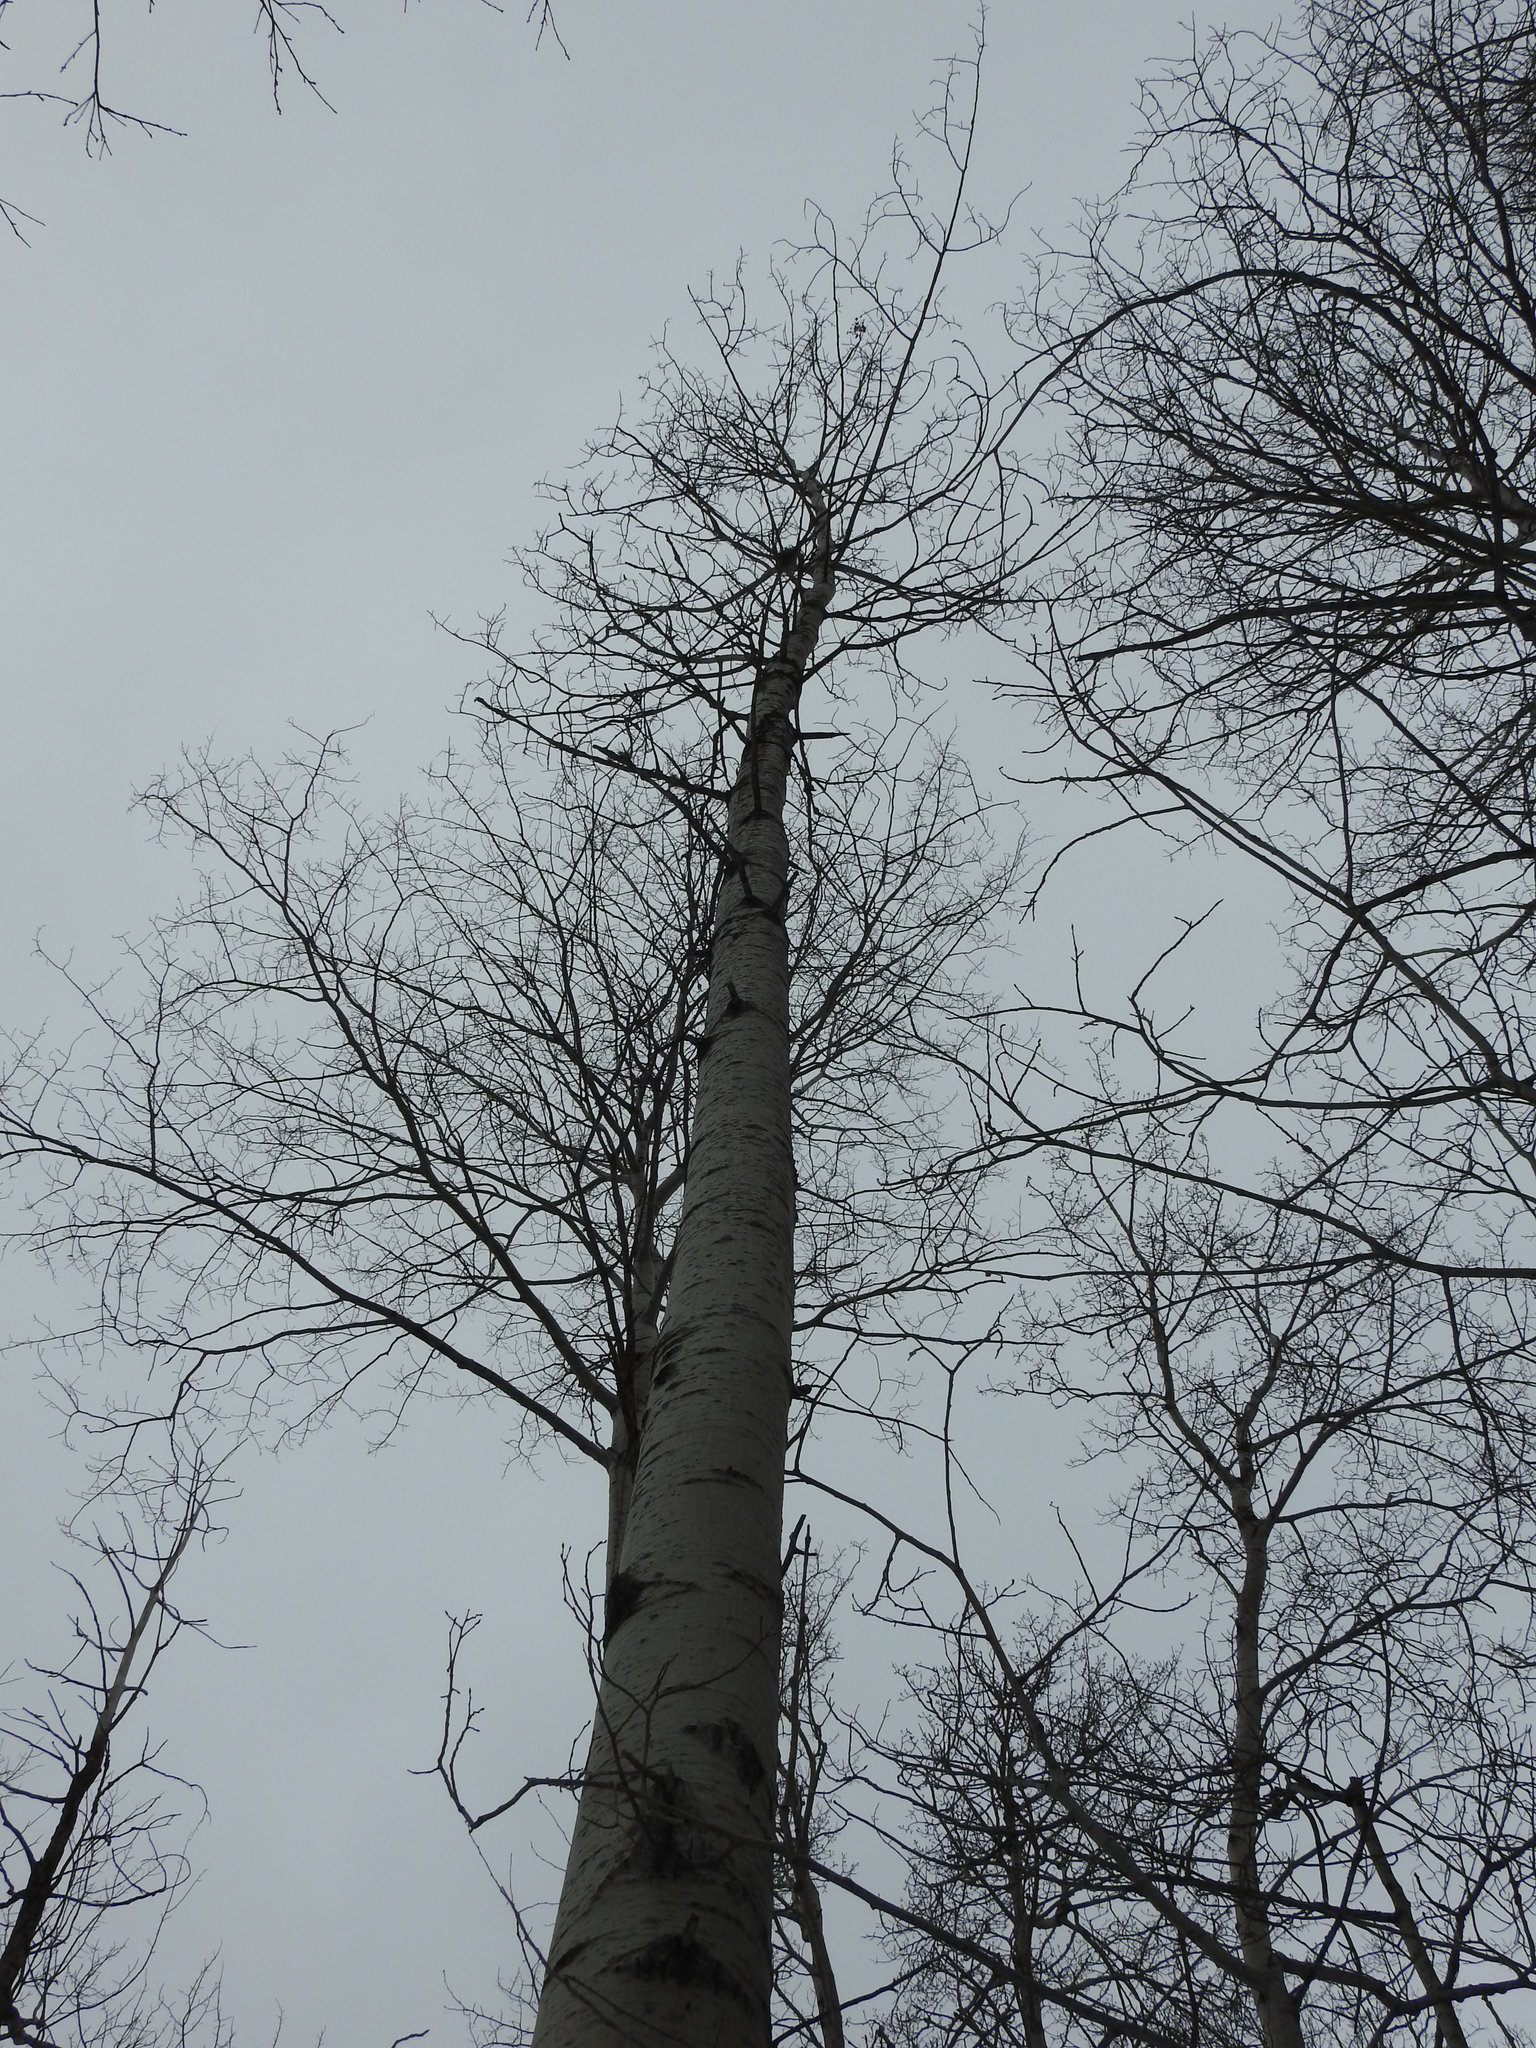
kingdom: Plantae
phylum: Tracheophyta
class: Magnoliopsida
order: Malpighiales
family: Salicaceae
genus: Populus
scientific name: Populus tremuloides
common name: Quaking aspen
